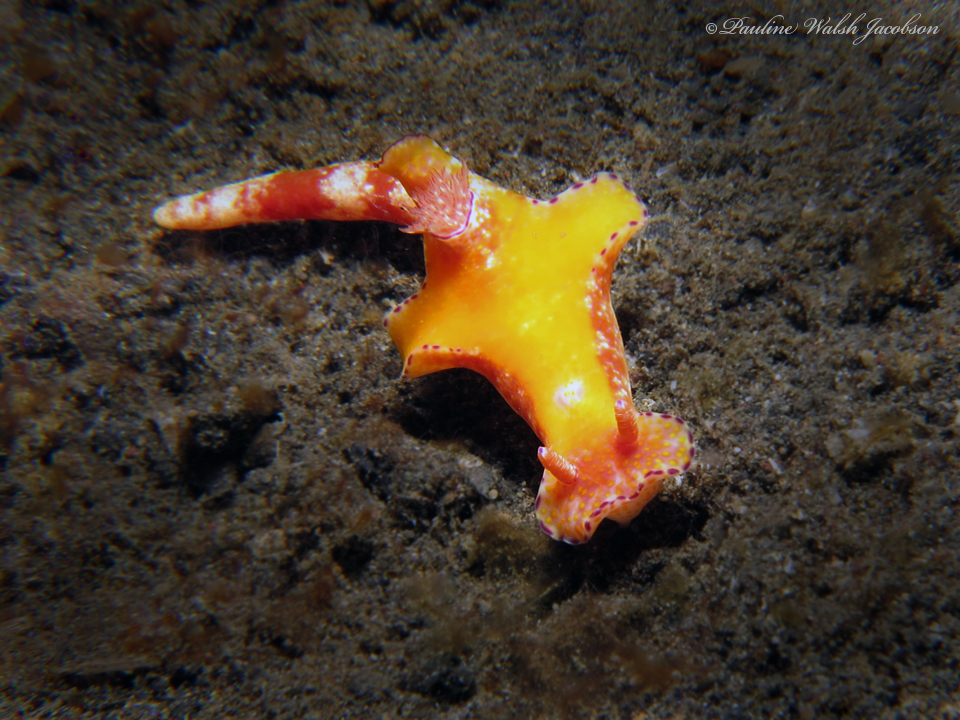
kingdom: Animalia
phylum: Mollusca
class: Gastropoda
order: Nudibranchia
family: Chromodorididae
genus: Ceratosoma
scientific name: Ceratosoma gracillimum
